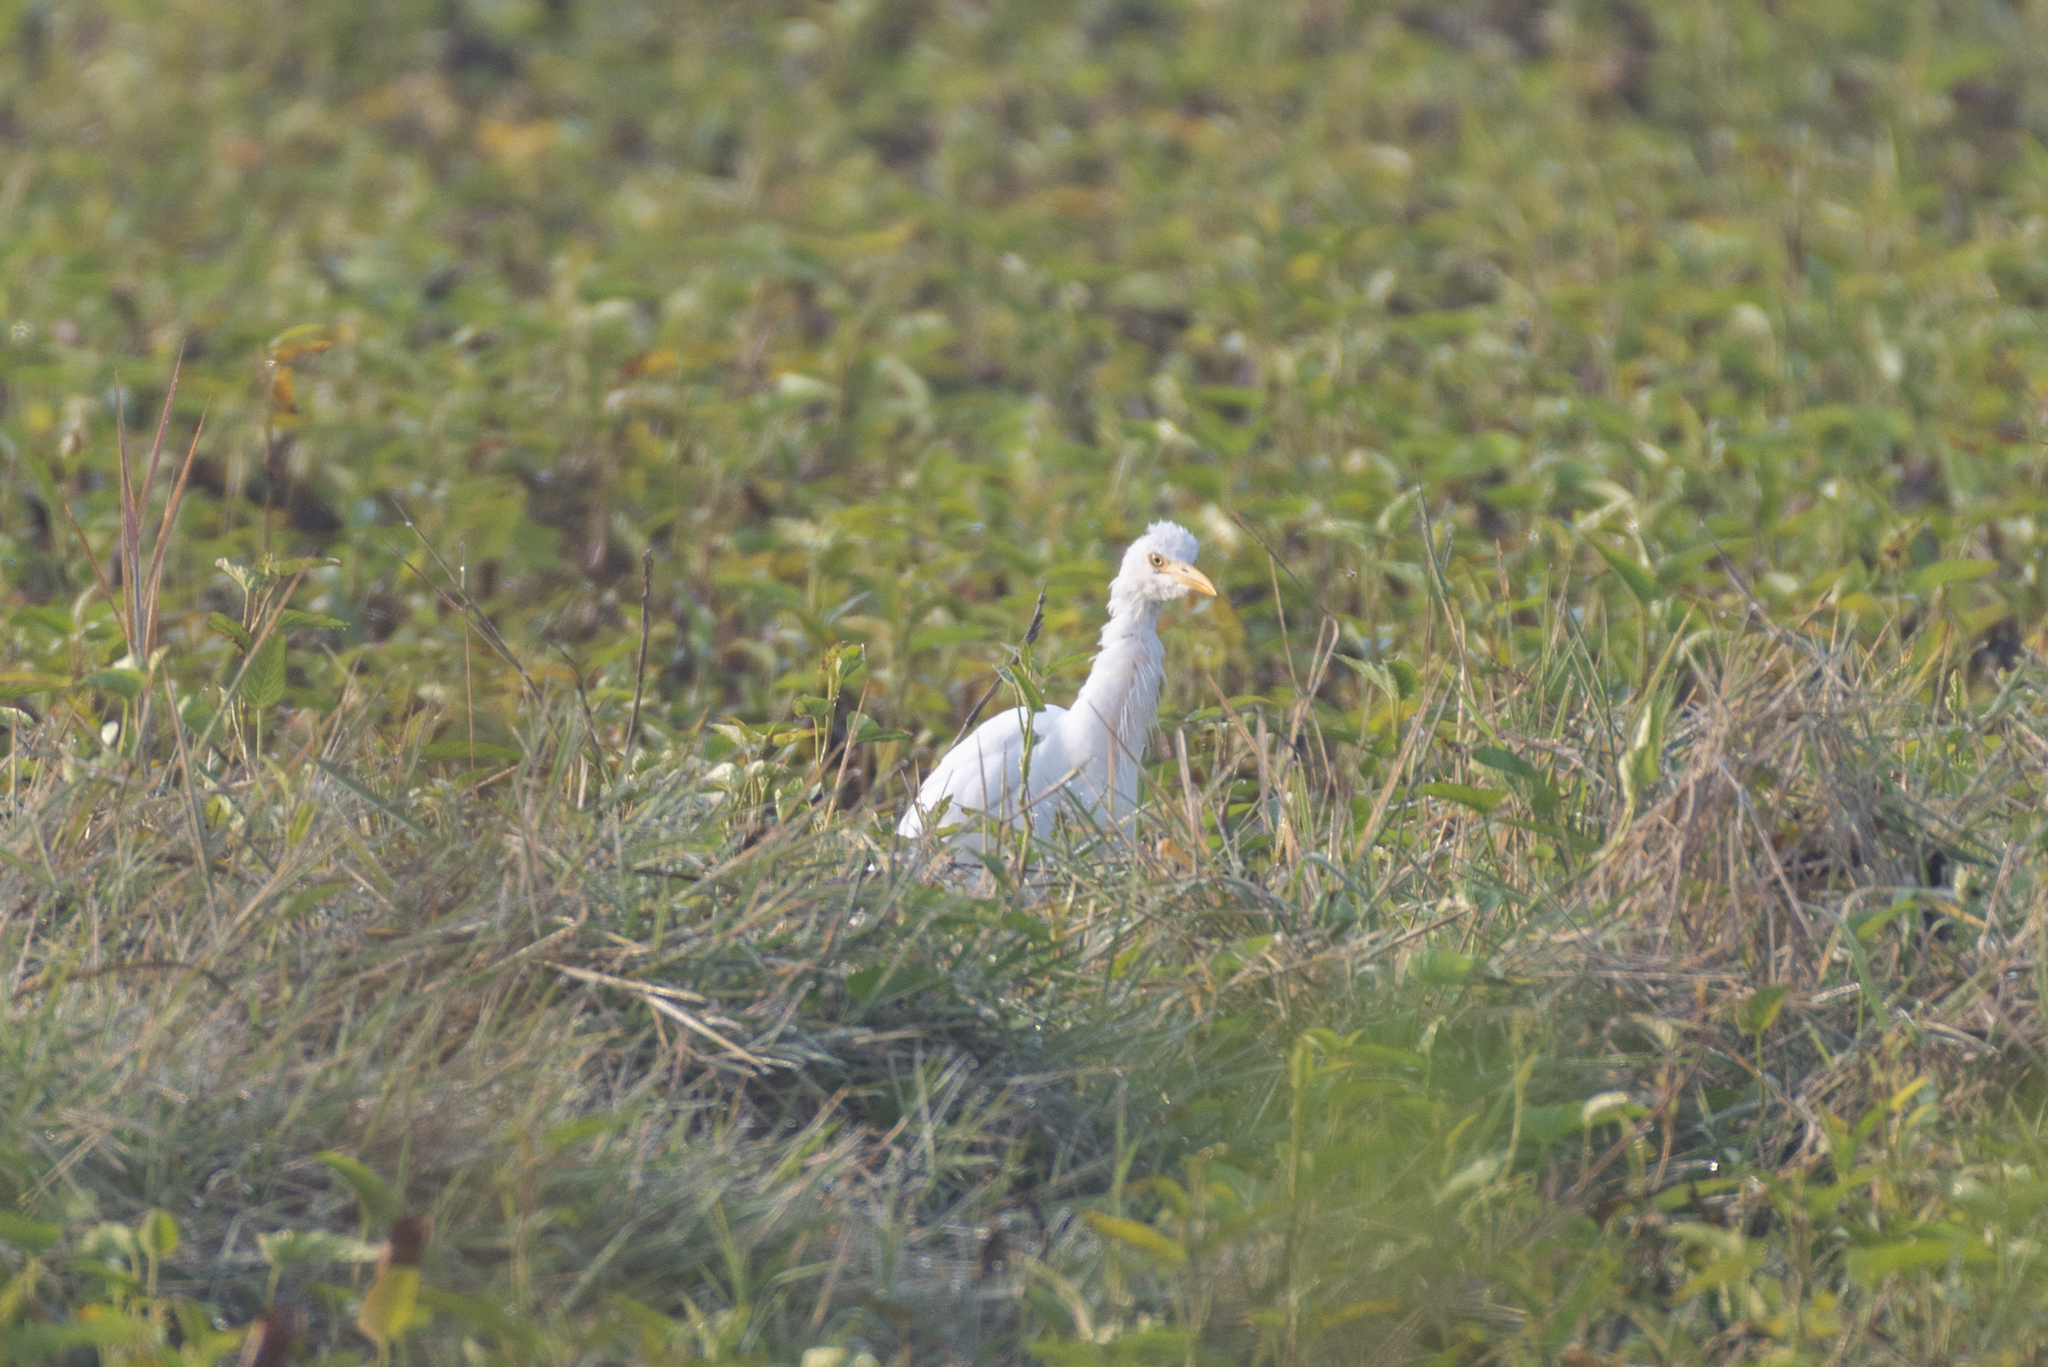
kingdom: Animalia
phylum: Chordata
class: Aves
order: Pelecaniformes
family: Ardeidae
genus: Bubulcus
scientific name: Bubulcus coromandus
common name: Eastern cattle egret
